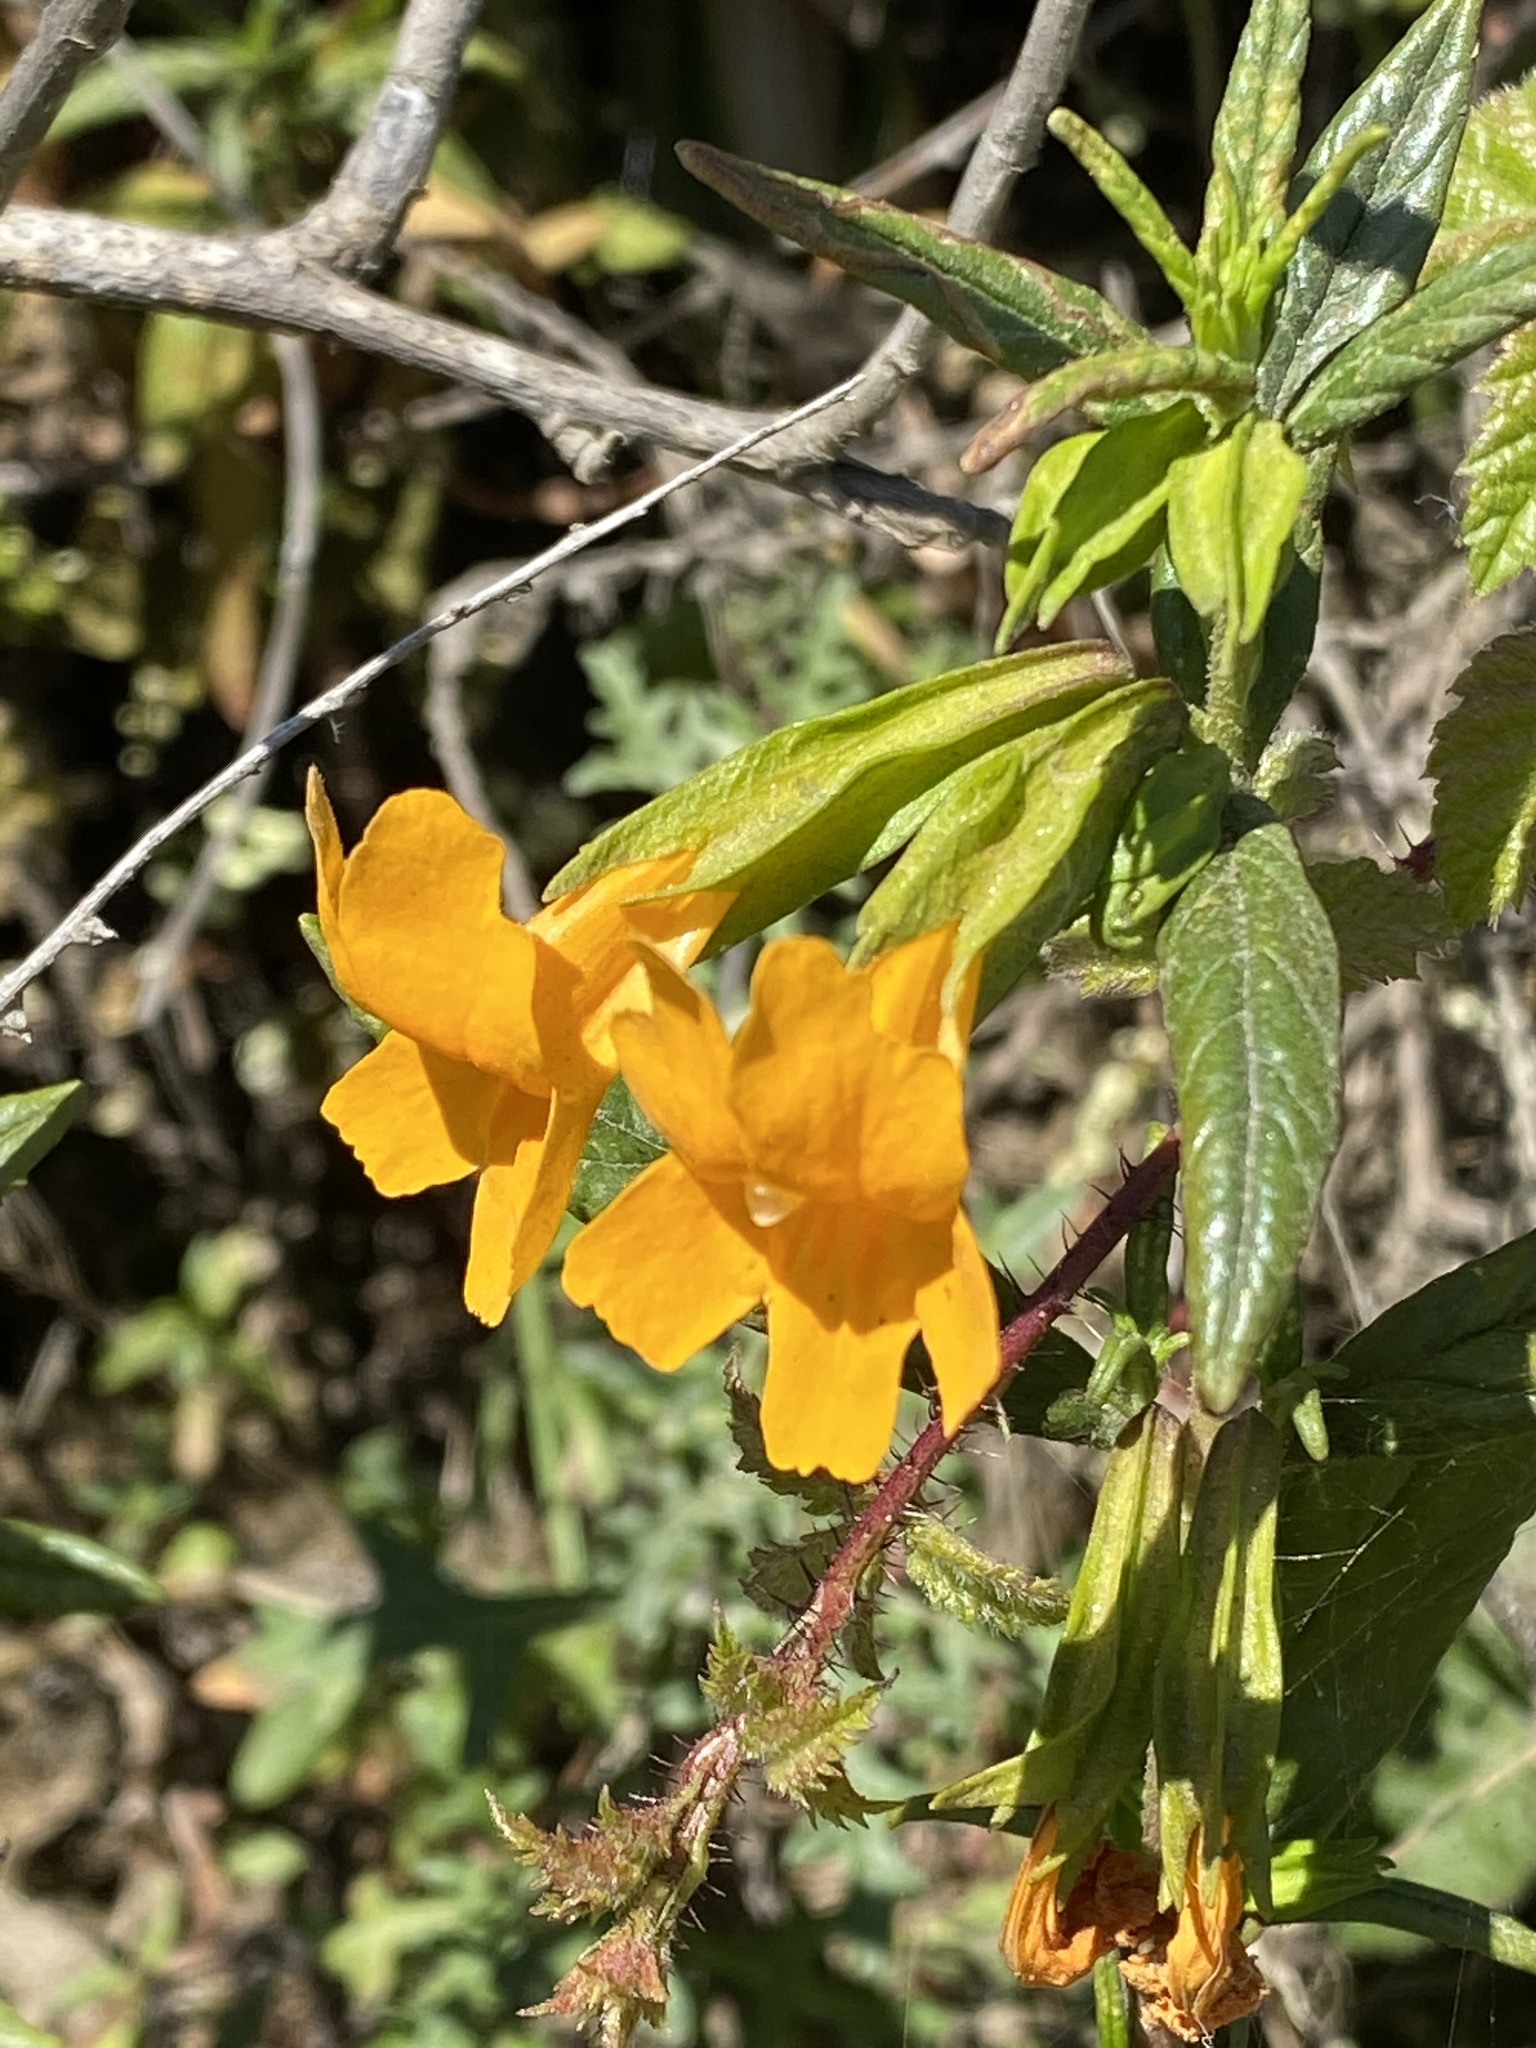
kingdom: Plantae
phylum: Tracheophyta
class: Magnoliopsida
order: Lamiales
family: Phrymaceae
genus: Diplacus
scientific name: Diplacus aurantiacus
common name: Bush monkey-flower
